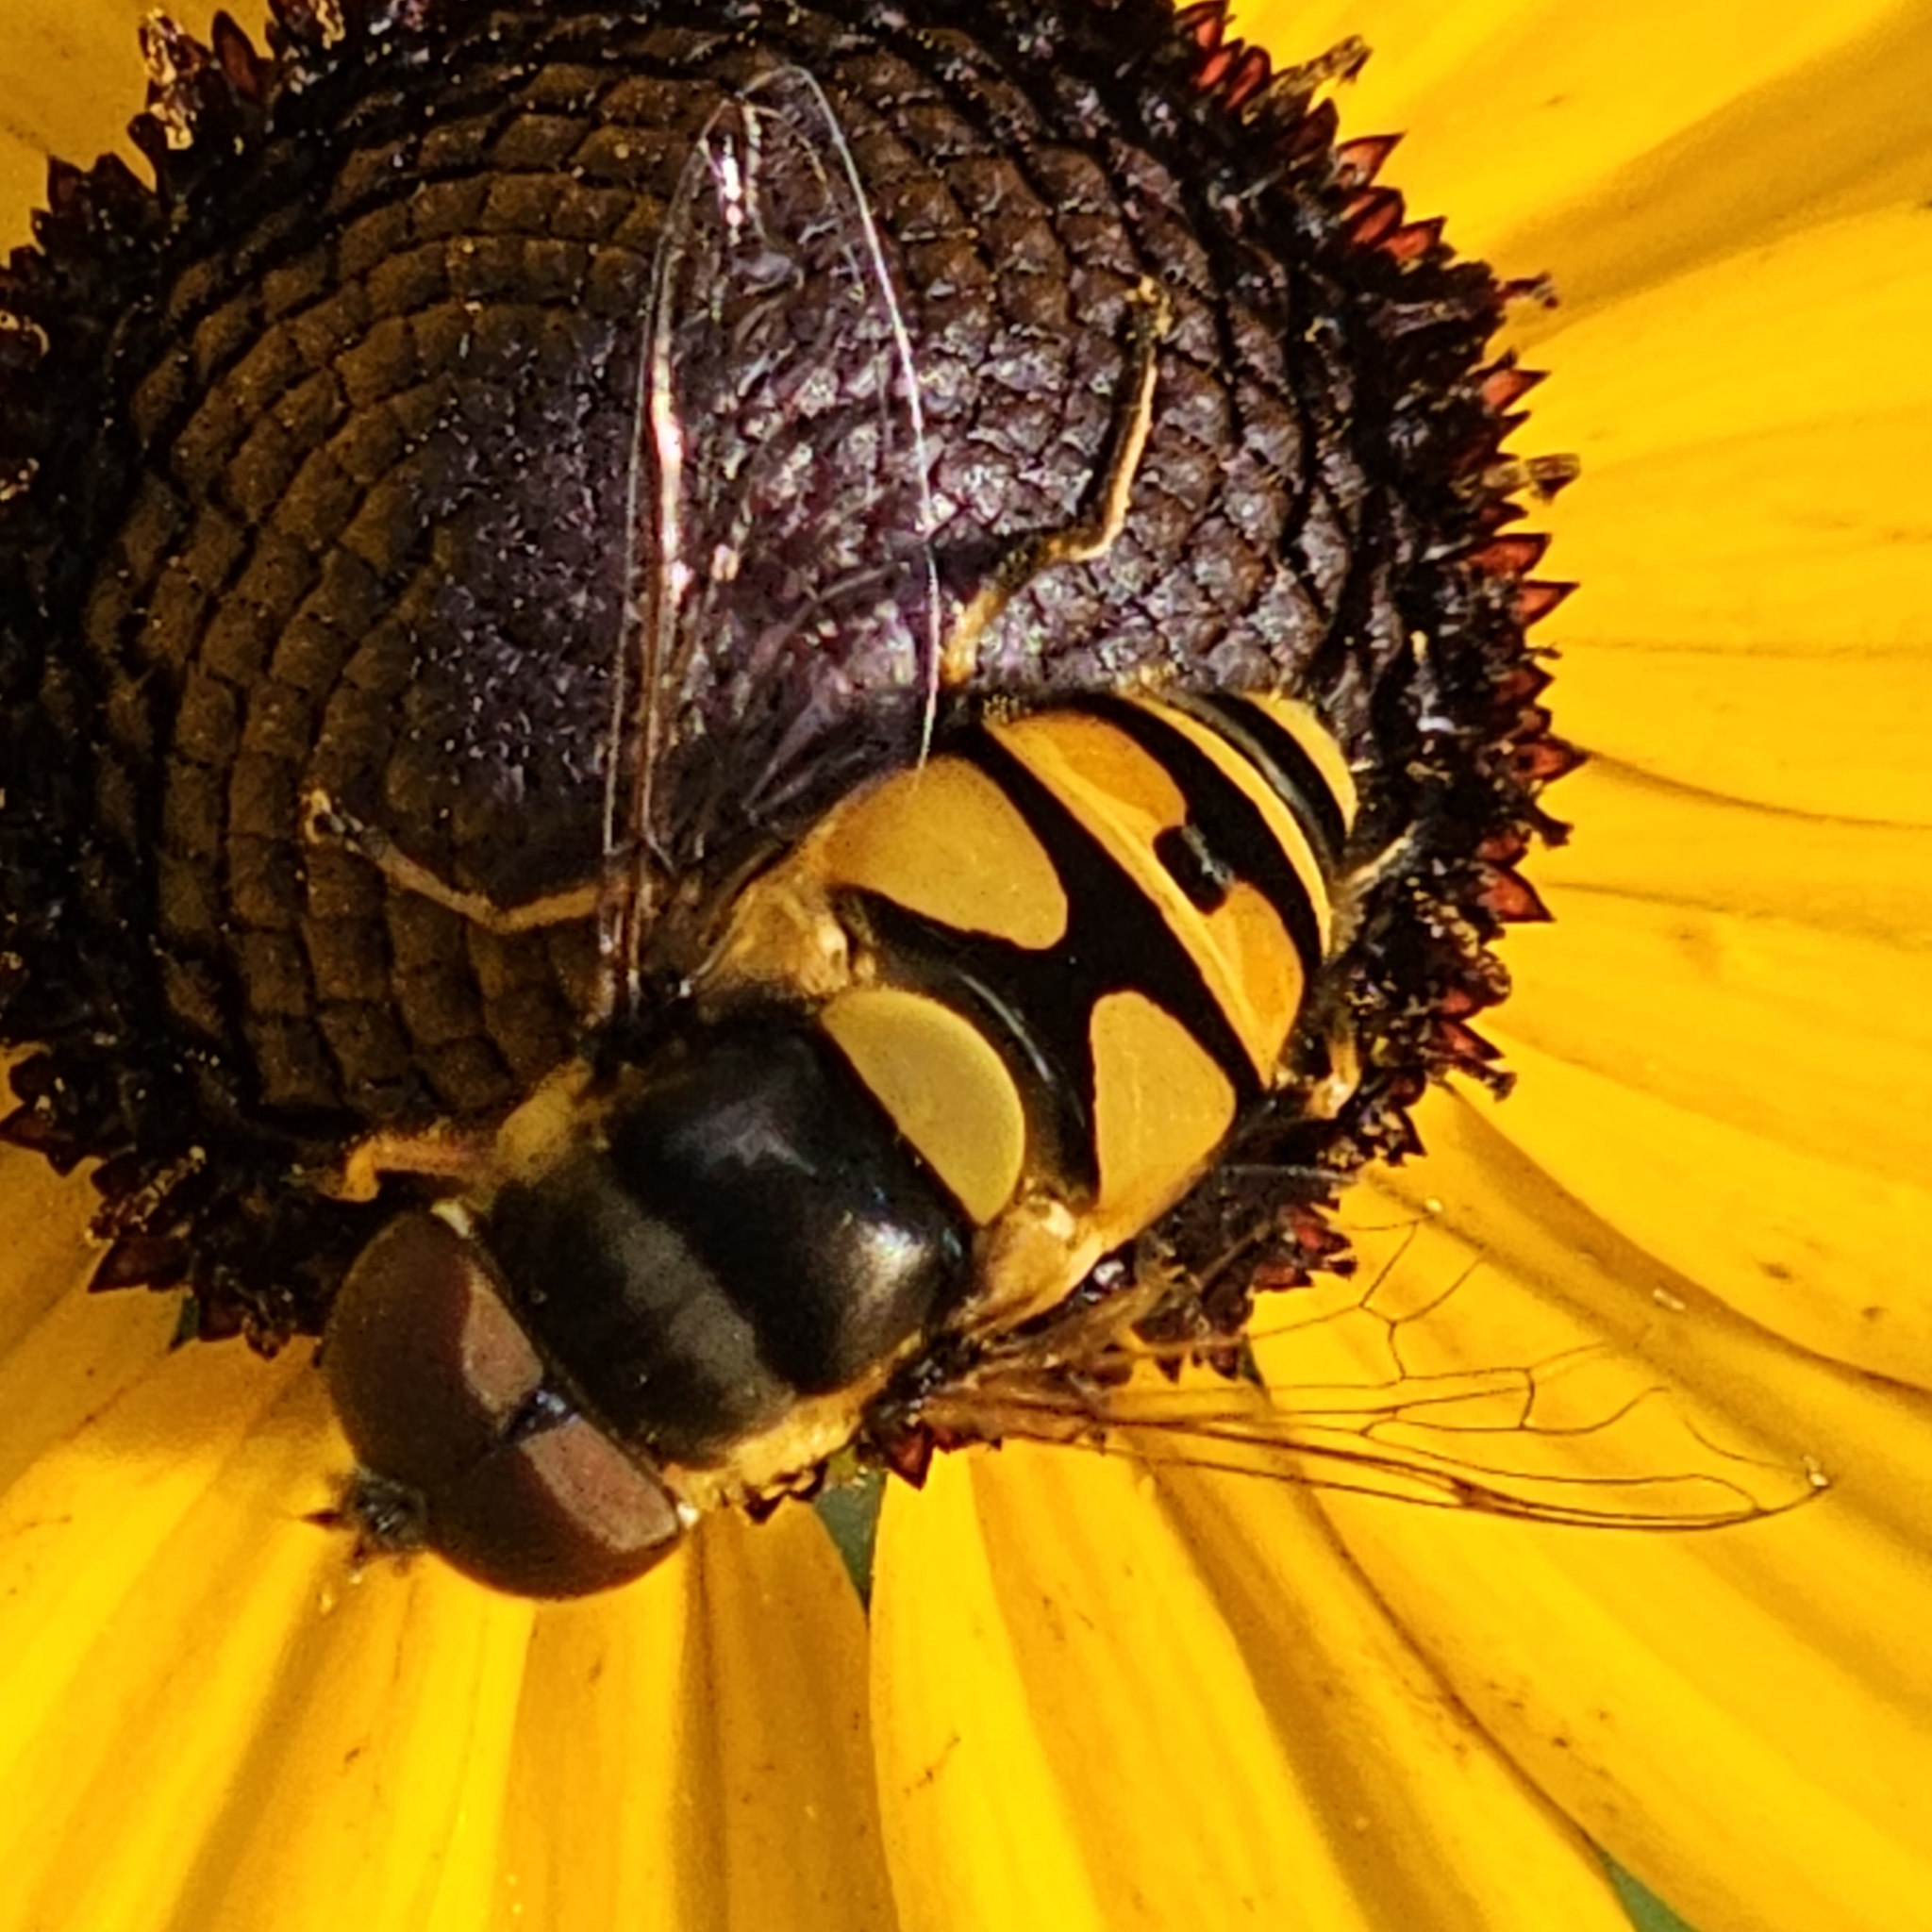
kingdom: Animalia
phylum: Arthropoda
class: Insecta
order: Diptera
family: Syrphidae
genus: Eristalis
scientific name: Eristalis transversa
